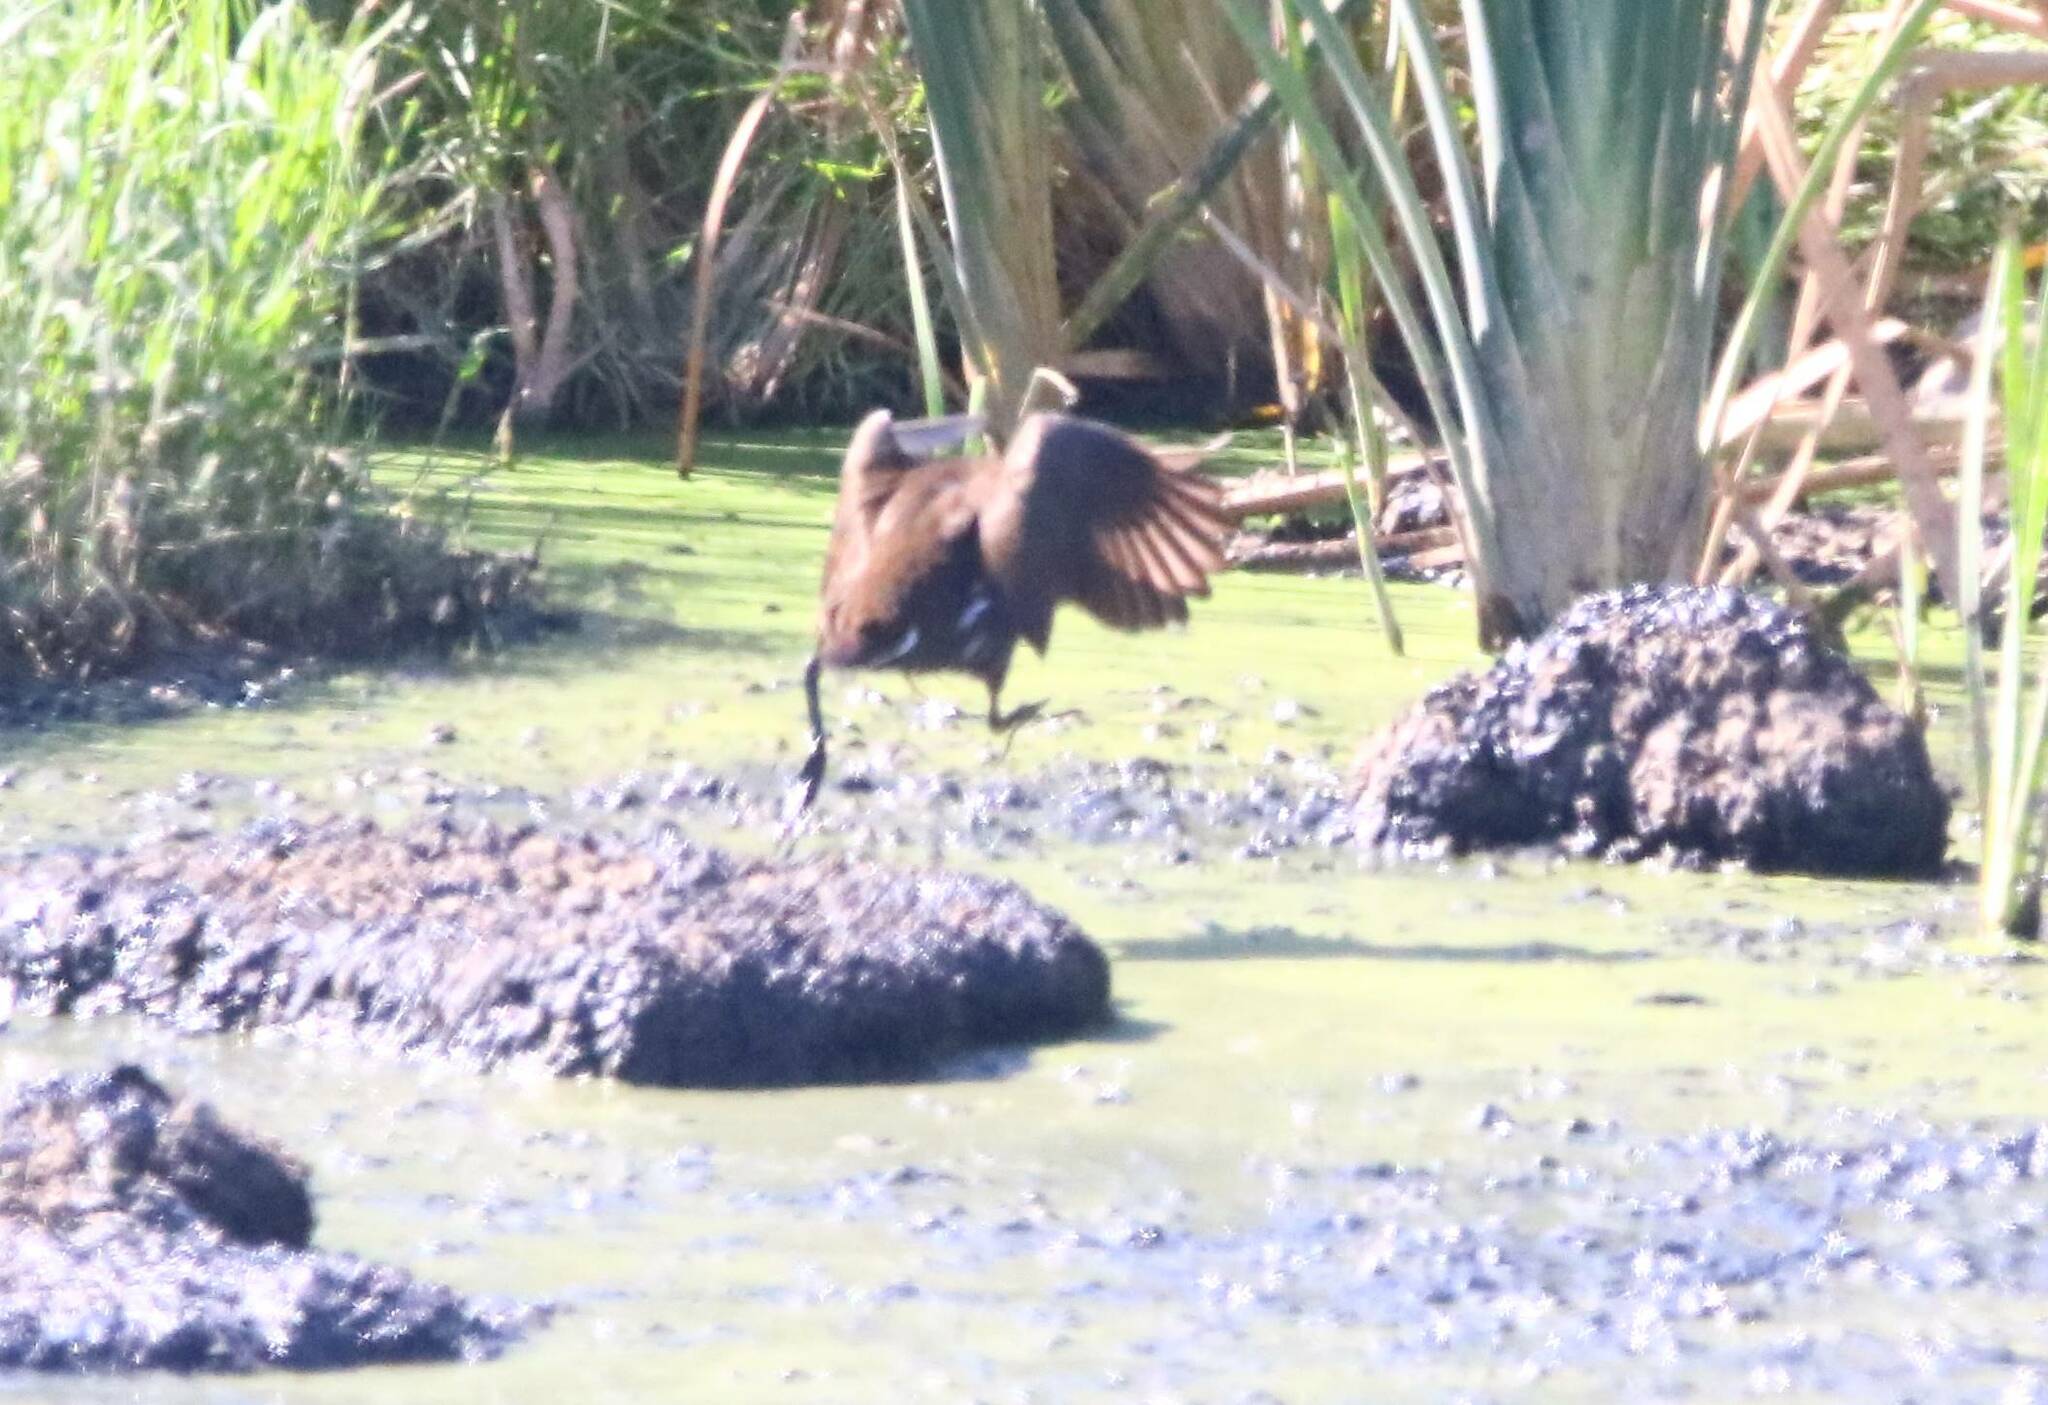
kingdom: Animalia
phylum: Chordata
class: Aves
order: Gruiformes
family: Rallidae
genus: Gallinula
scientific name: Gallinula chloropus
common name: Common moorhen
